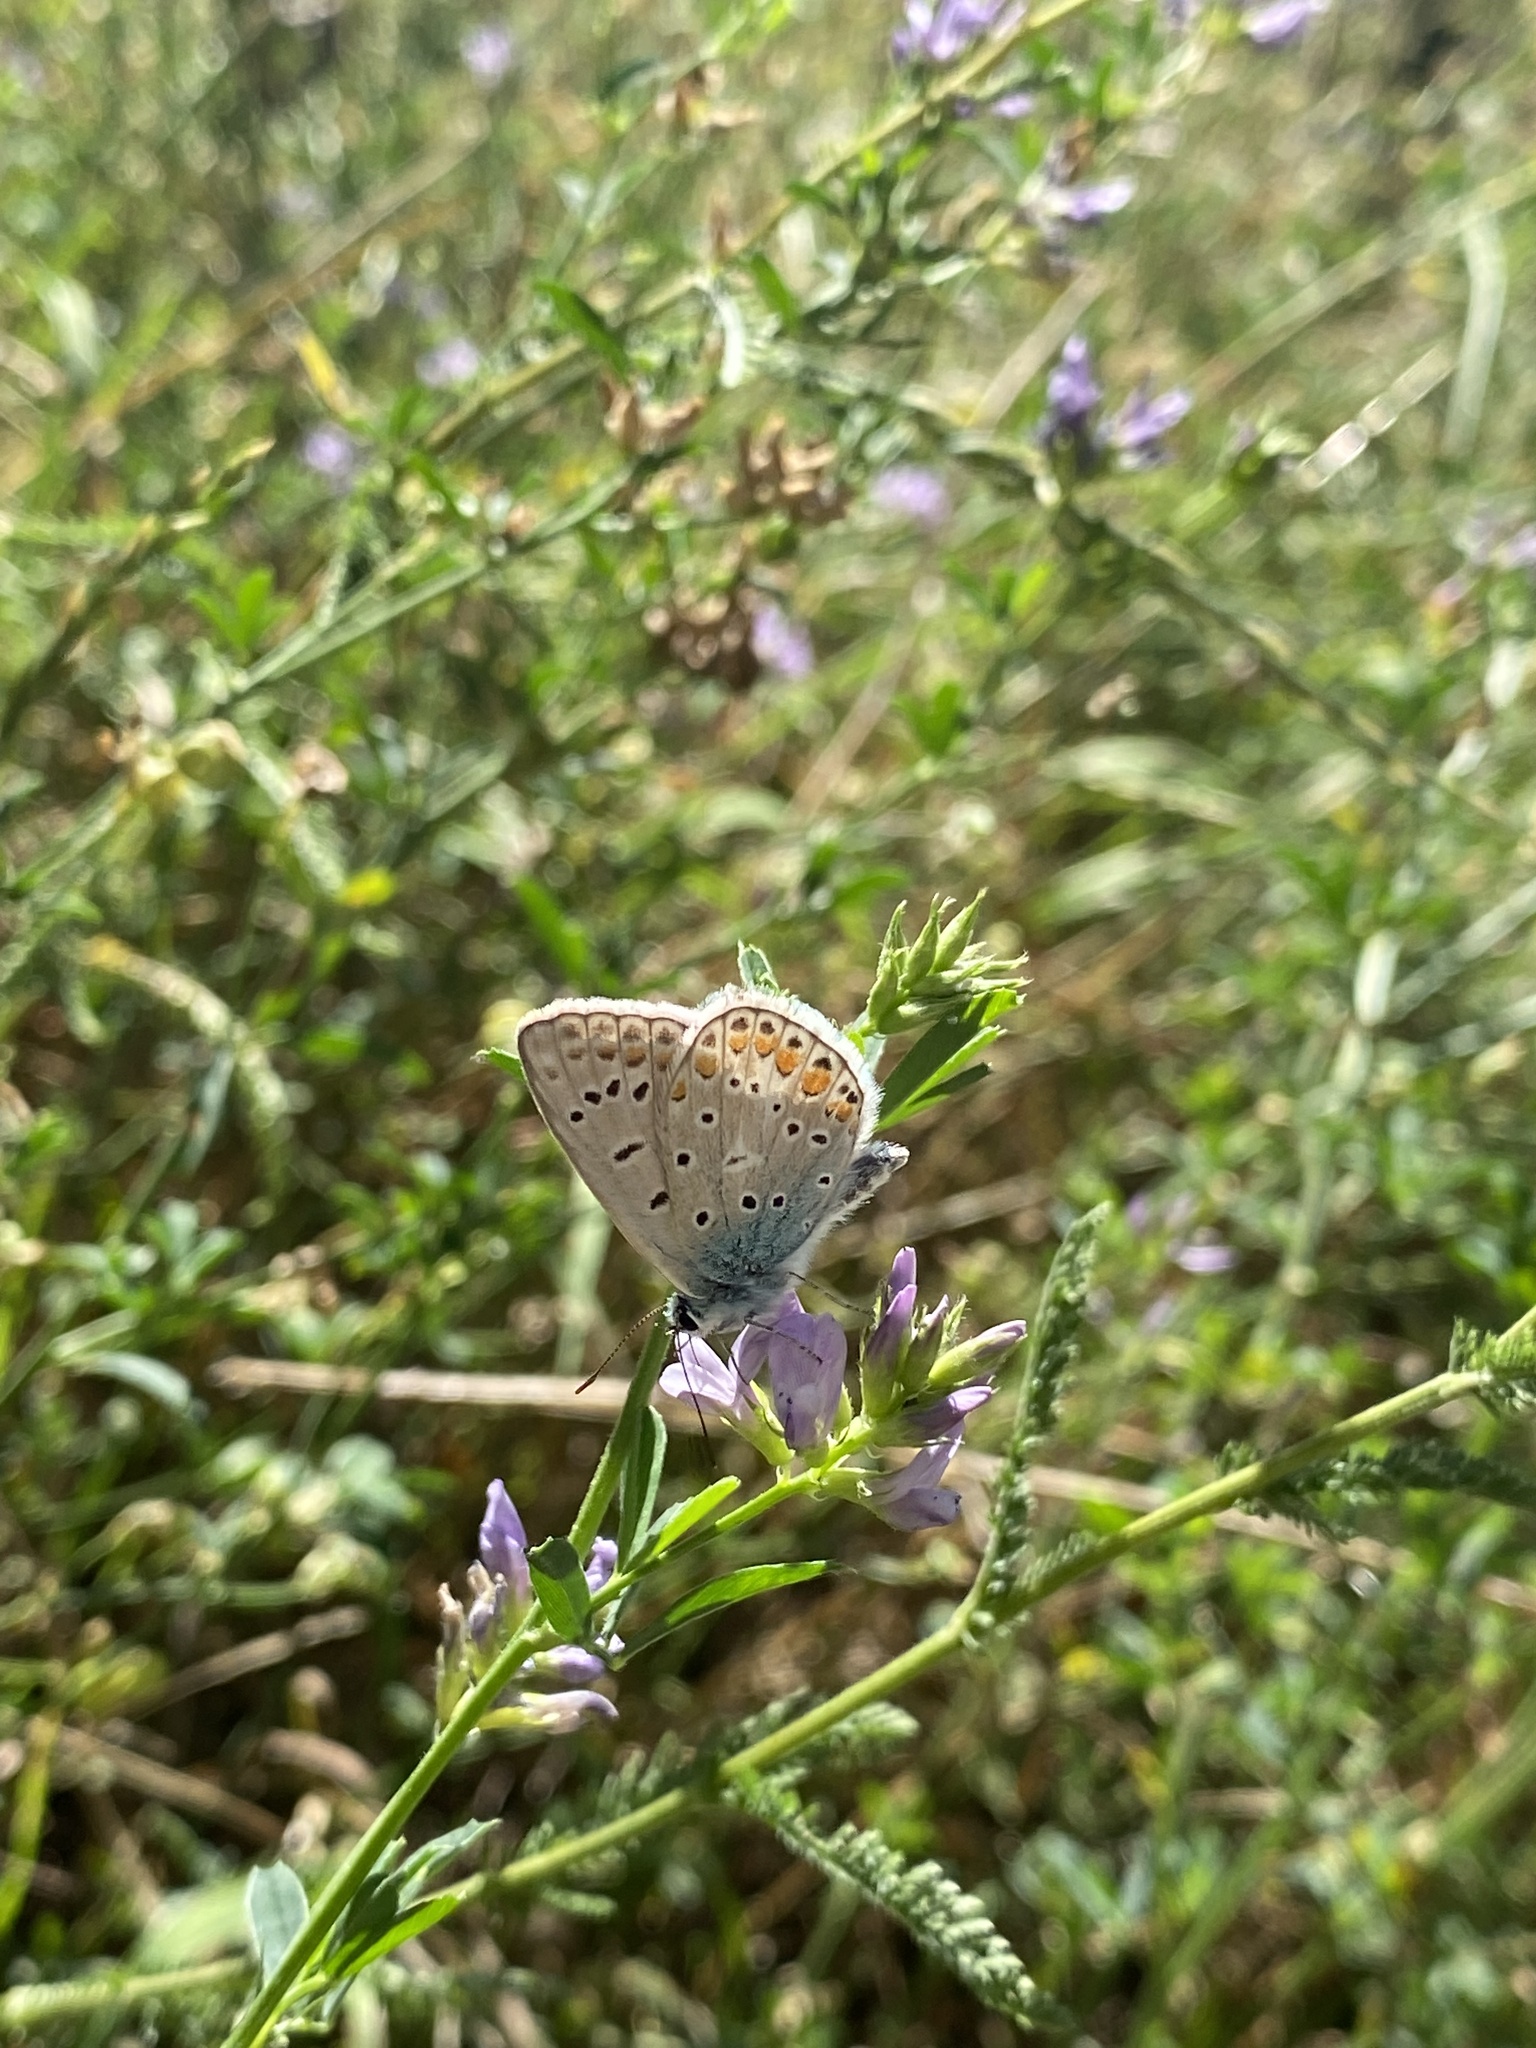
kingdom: Animalia
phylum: Arthropoda
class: Insecta
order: Lepidoptera
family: Lycaenidae
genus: Polyommatus
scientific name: Polyommatus icarus
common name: Common blue
